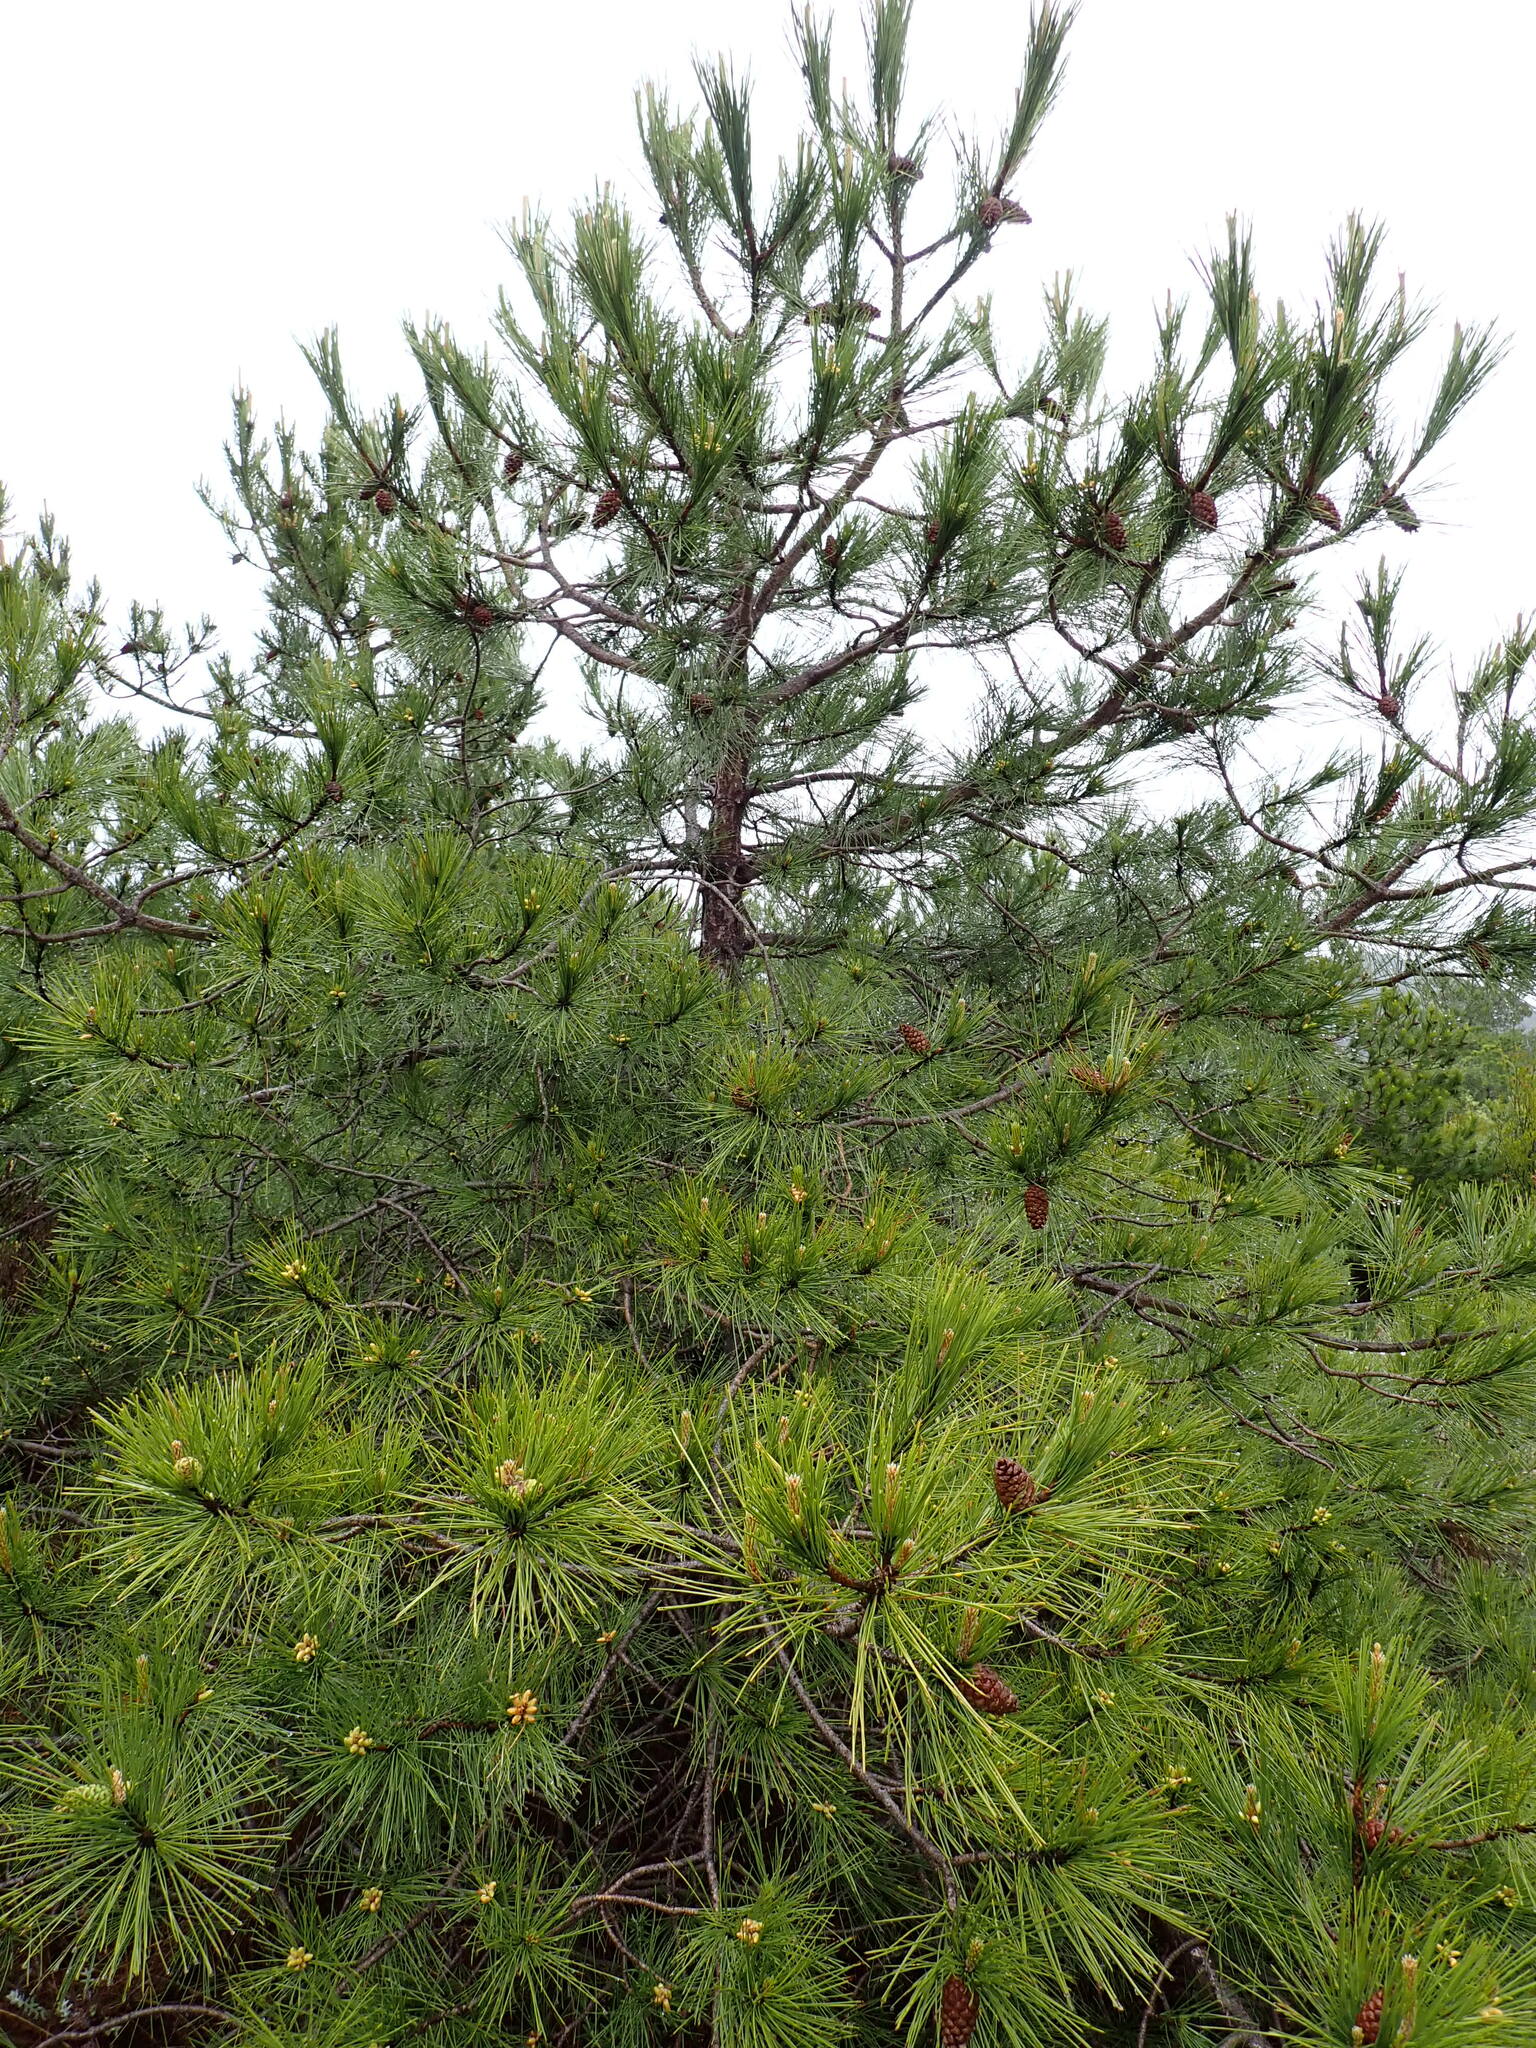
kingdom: Plantae
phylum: Tracheophyta
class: Pinopsida
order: Pinales
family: Pinaceae
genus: Pinus
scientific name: Pinus nigra
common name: Austrian pine
